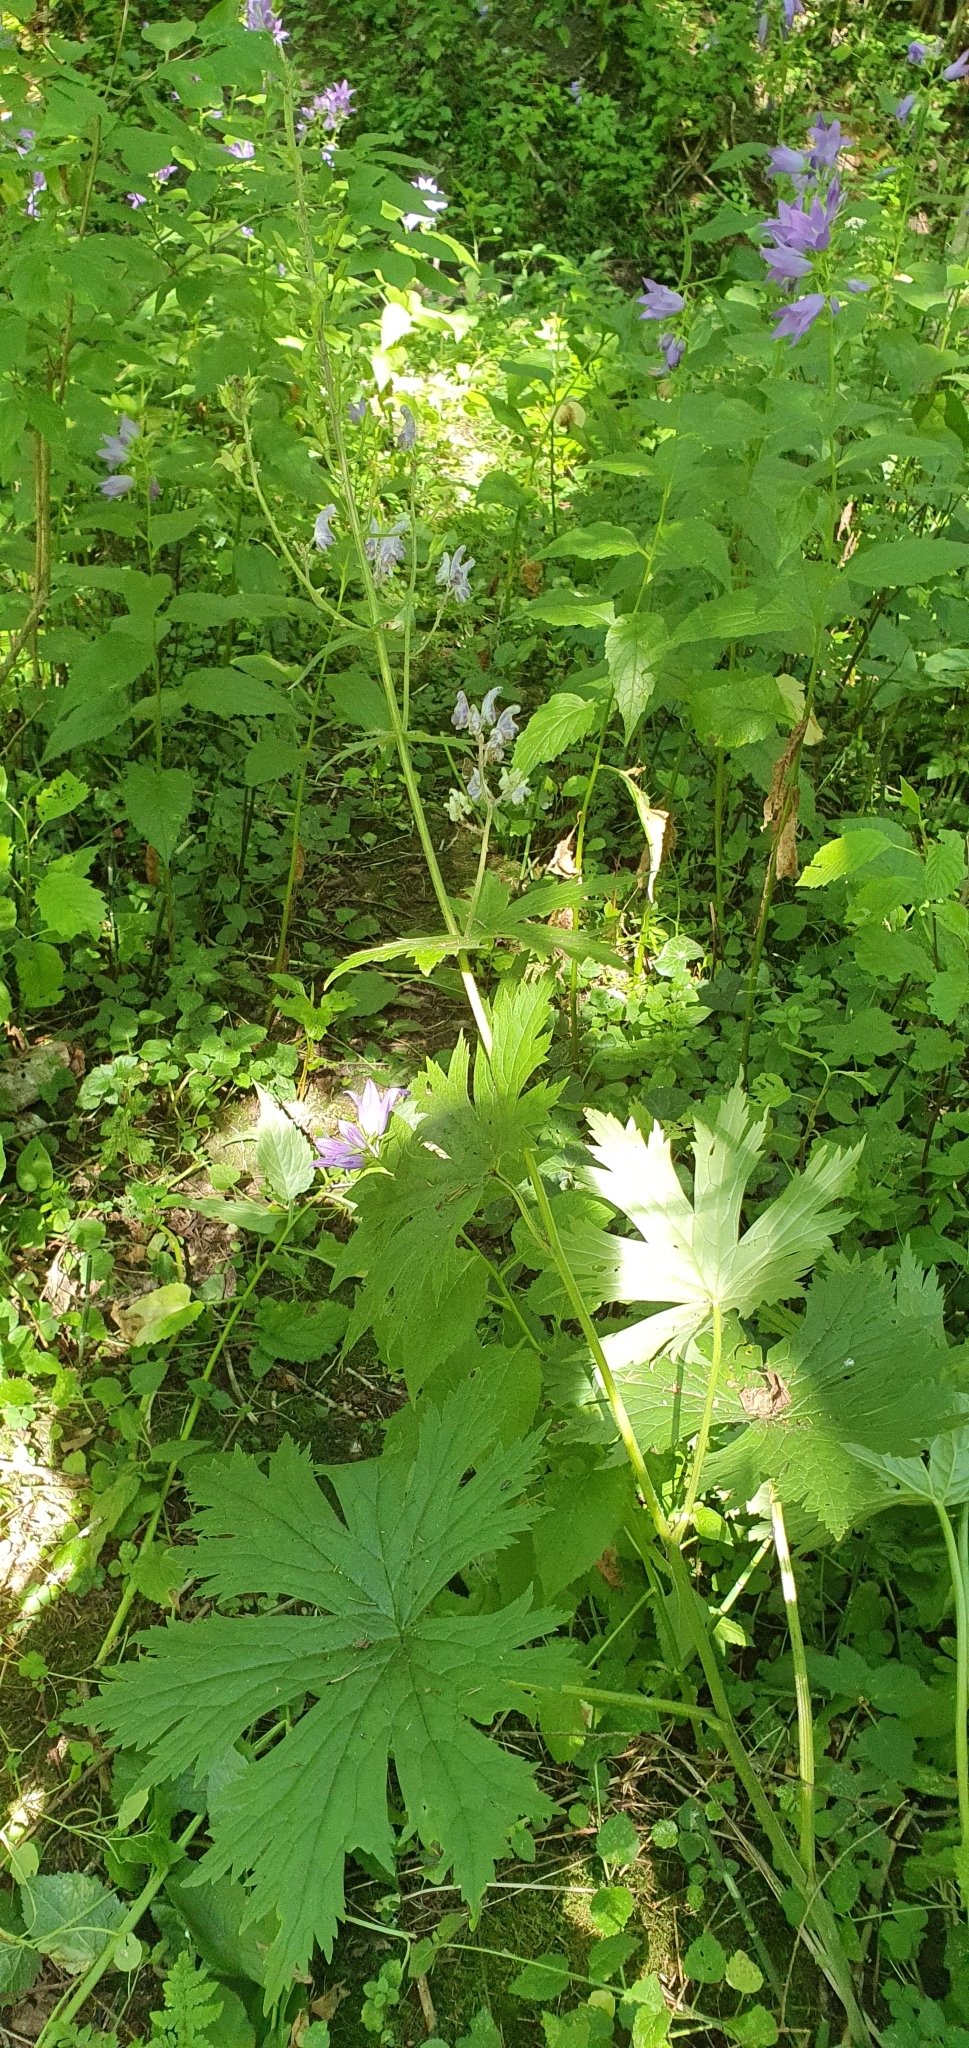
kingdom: Plantae
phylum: Tracheophyta
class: Magnoliopsida
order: Ranunculales
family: Ranunculaceae
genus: Aconitum
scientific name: Aconitum septentrionale
